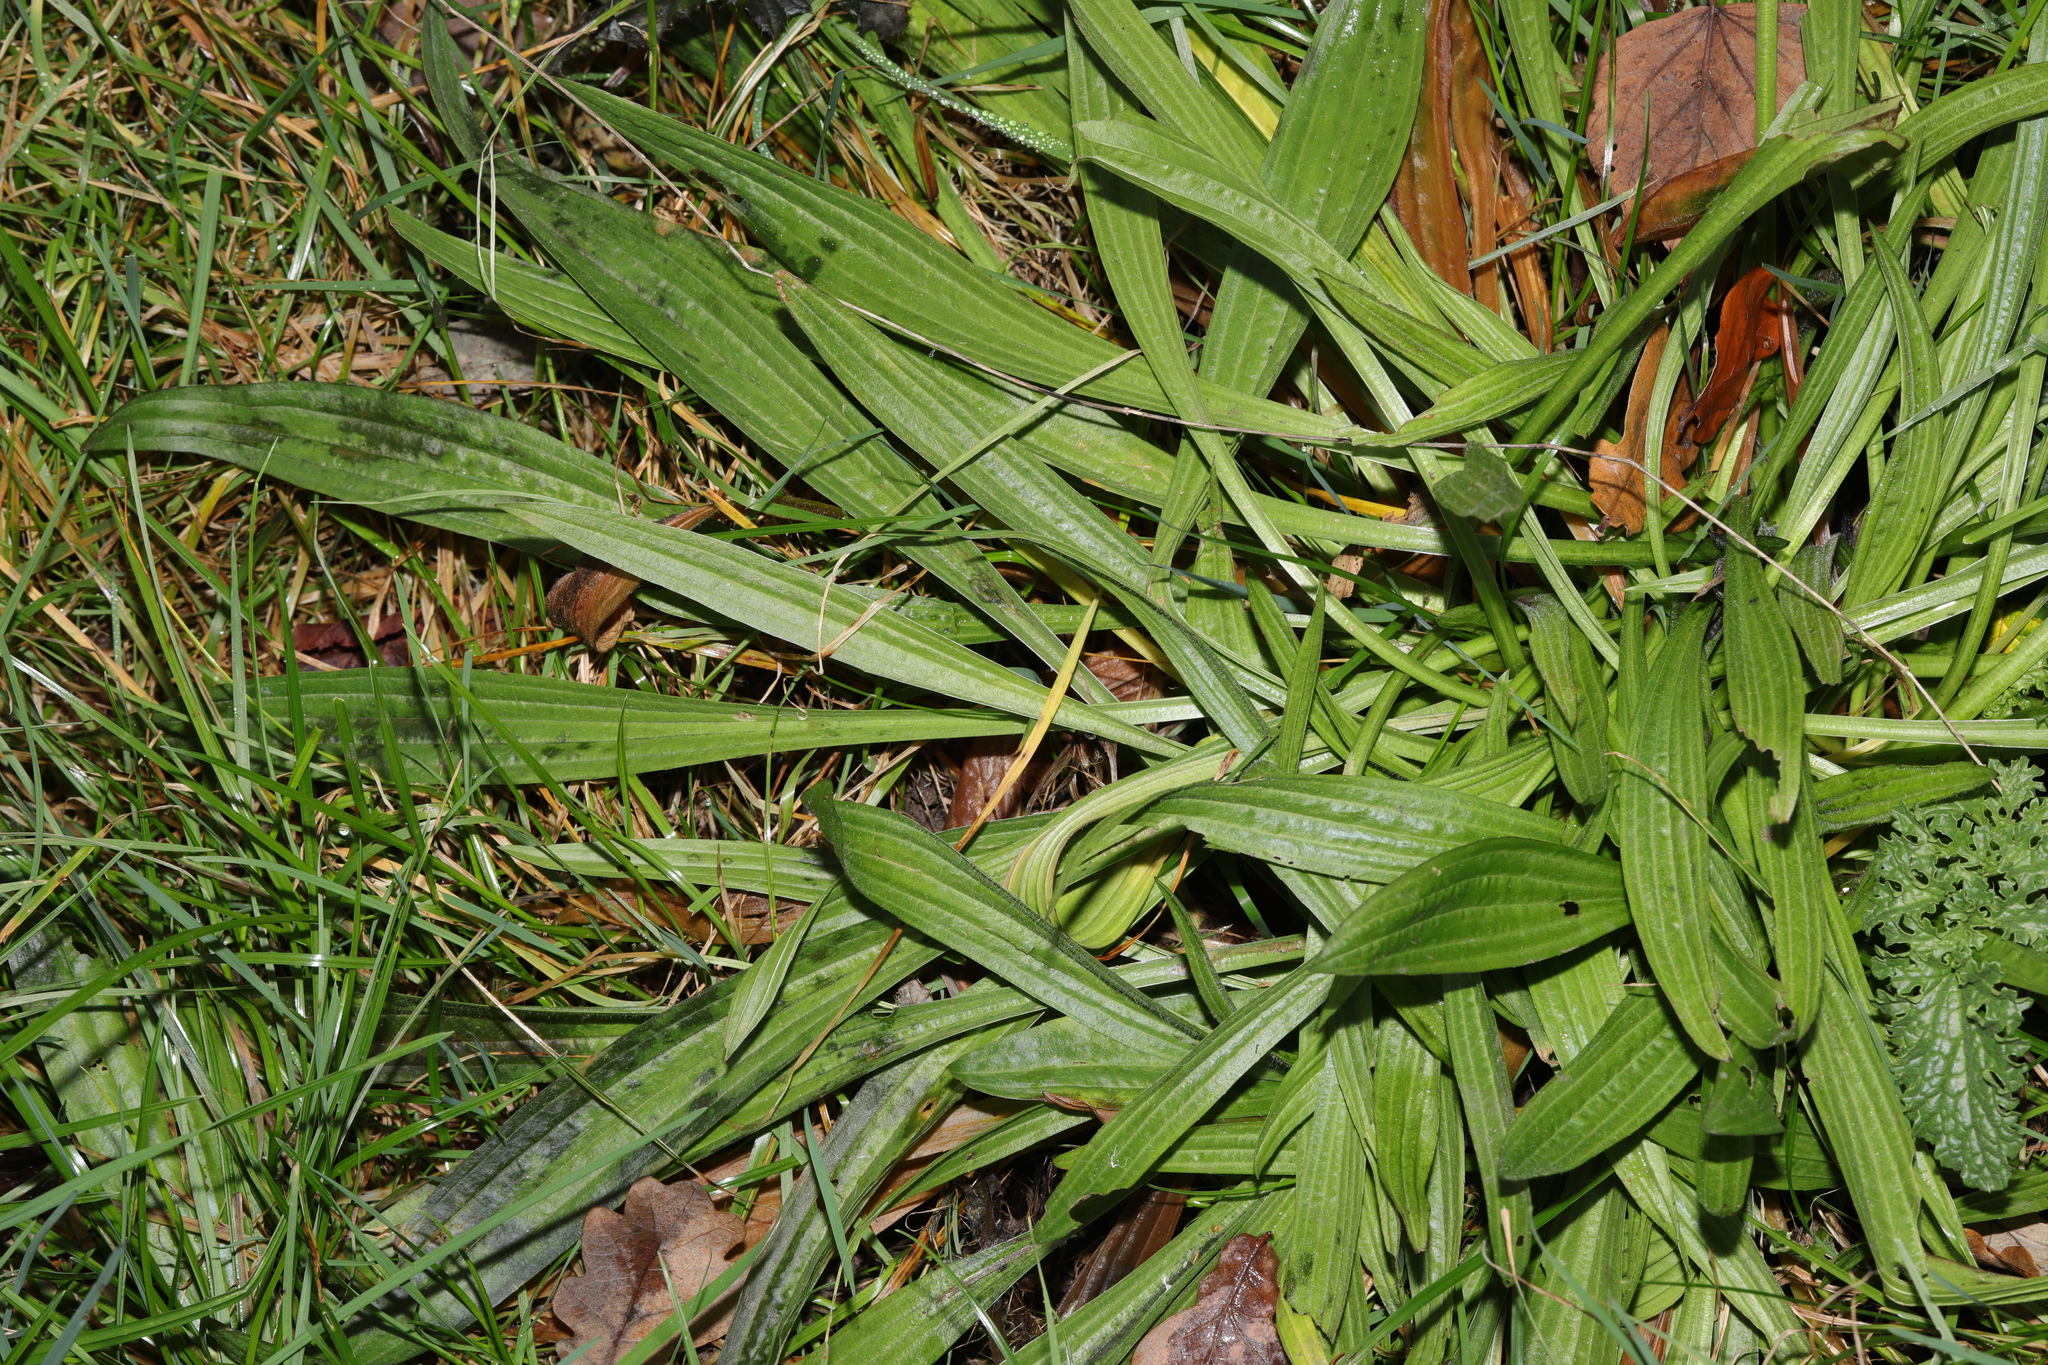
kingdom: Plantae
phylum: Tracheophyta
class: Magnoliopsida
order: Lamiales
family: Plantaginaceae
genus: Plantago
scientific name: Plantago lanceolata
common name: Ribwort plantain
